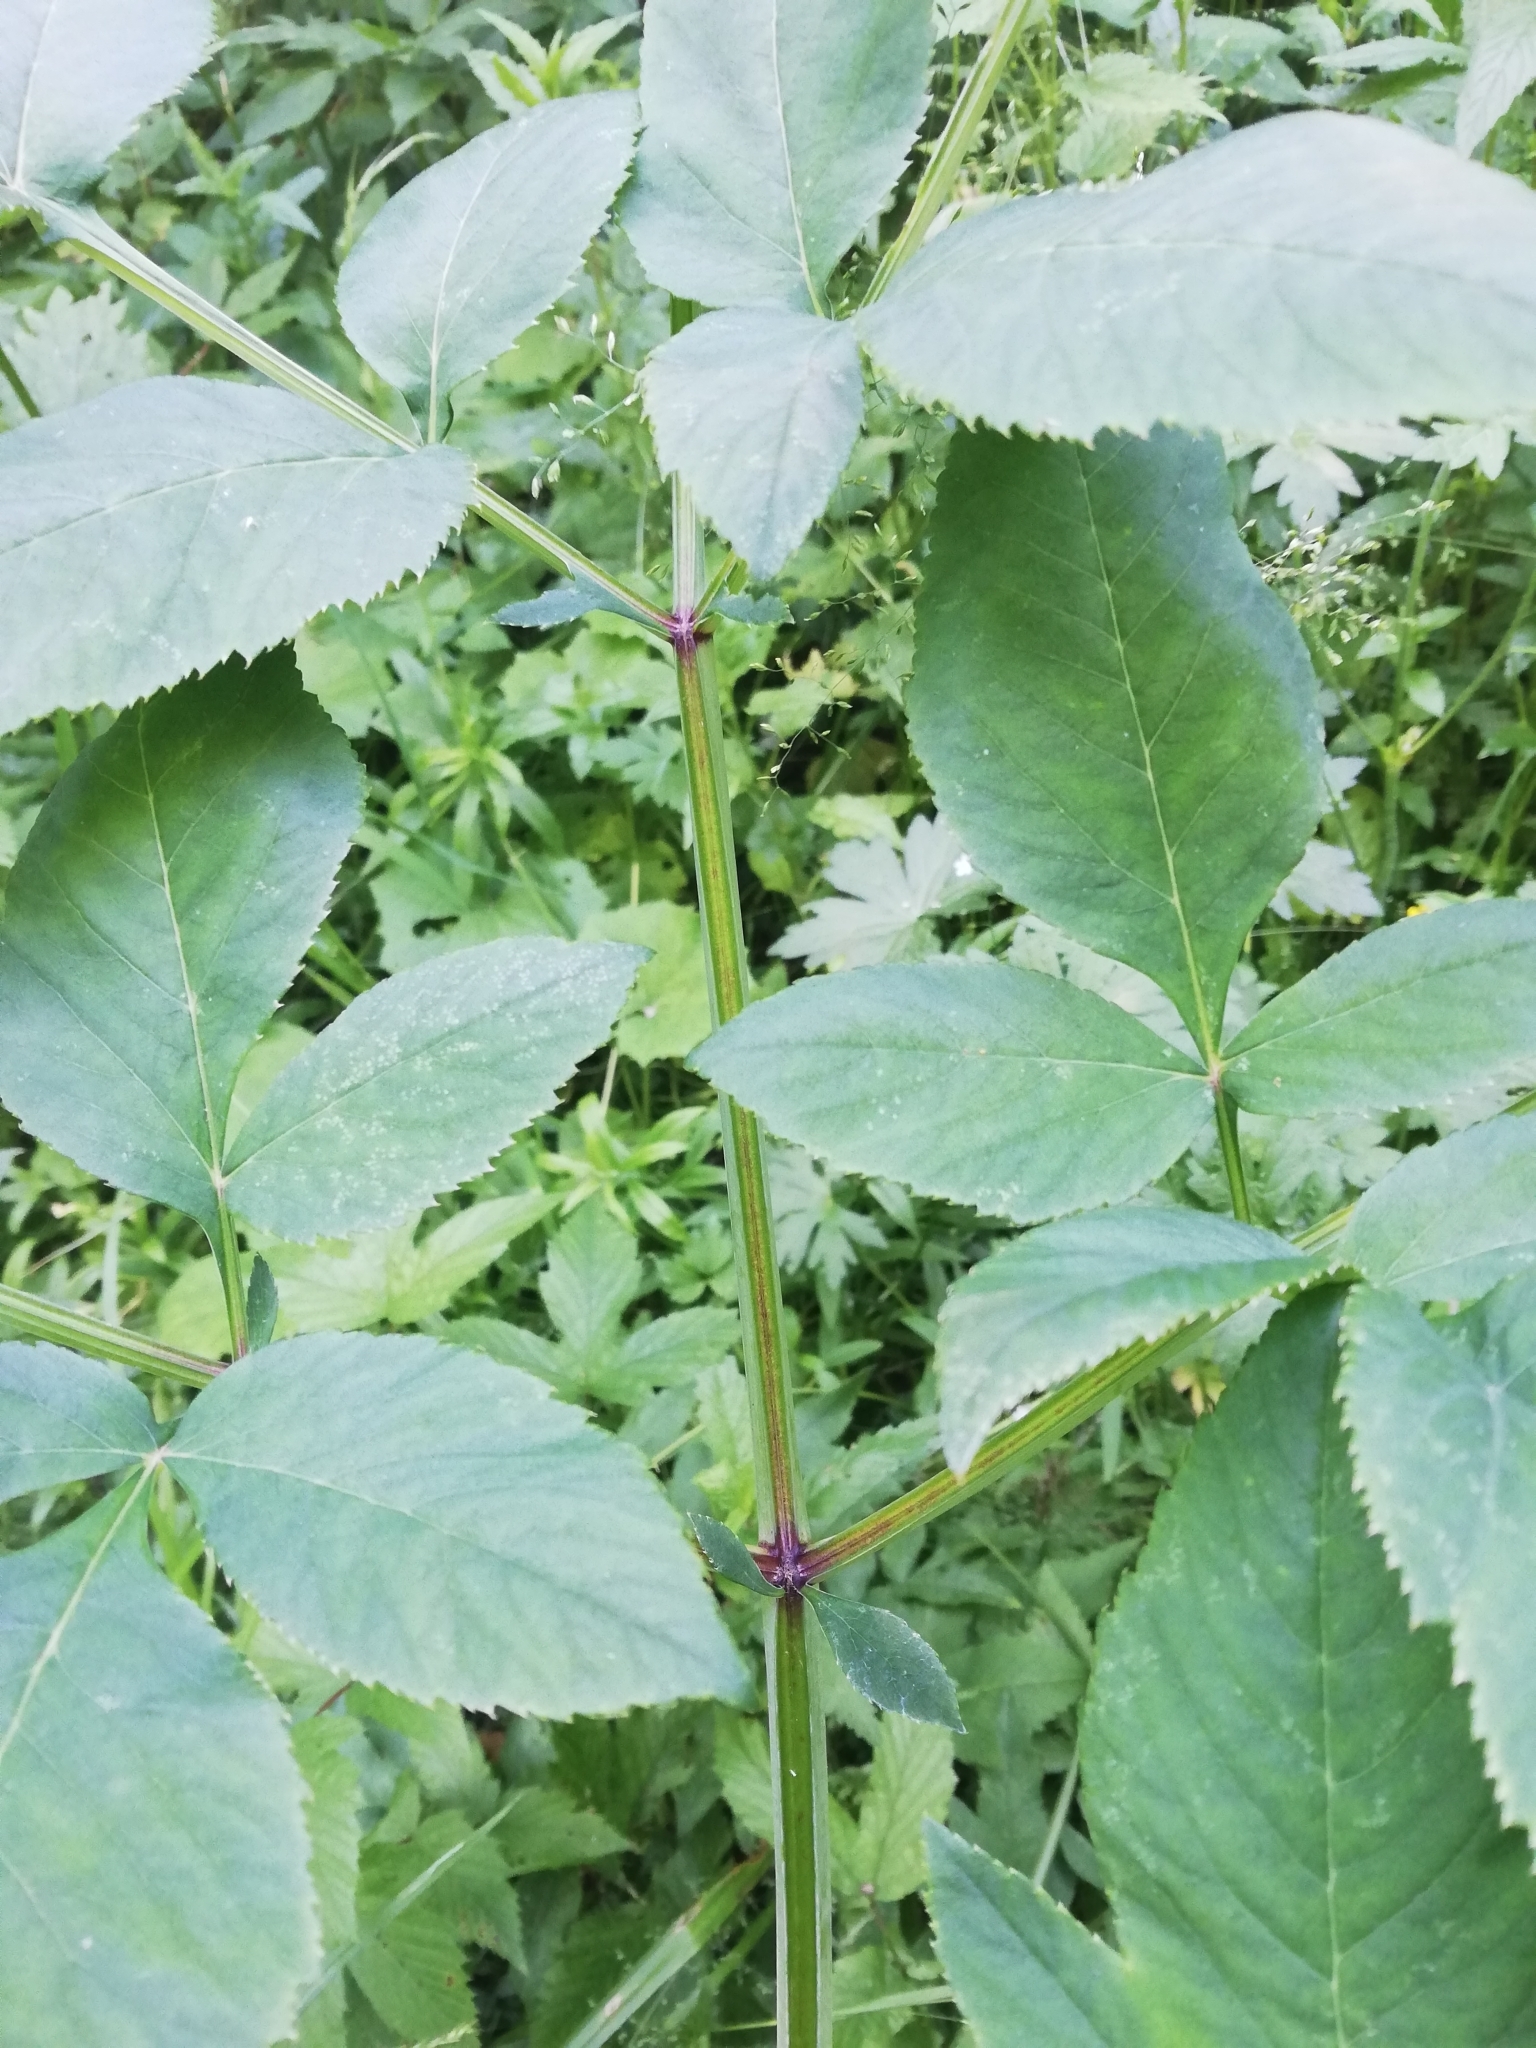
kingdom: Plantae
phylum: Tracheophyta
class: Magnoliopsida
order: Apiales
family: Apiaceae
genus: Angelica
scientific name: Angelica sylvestris
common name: Wild angelica
